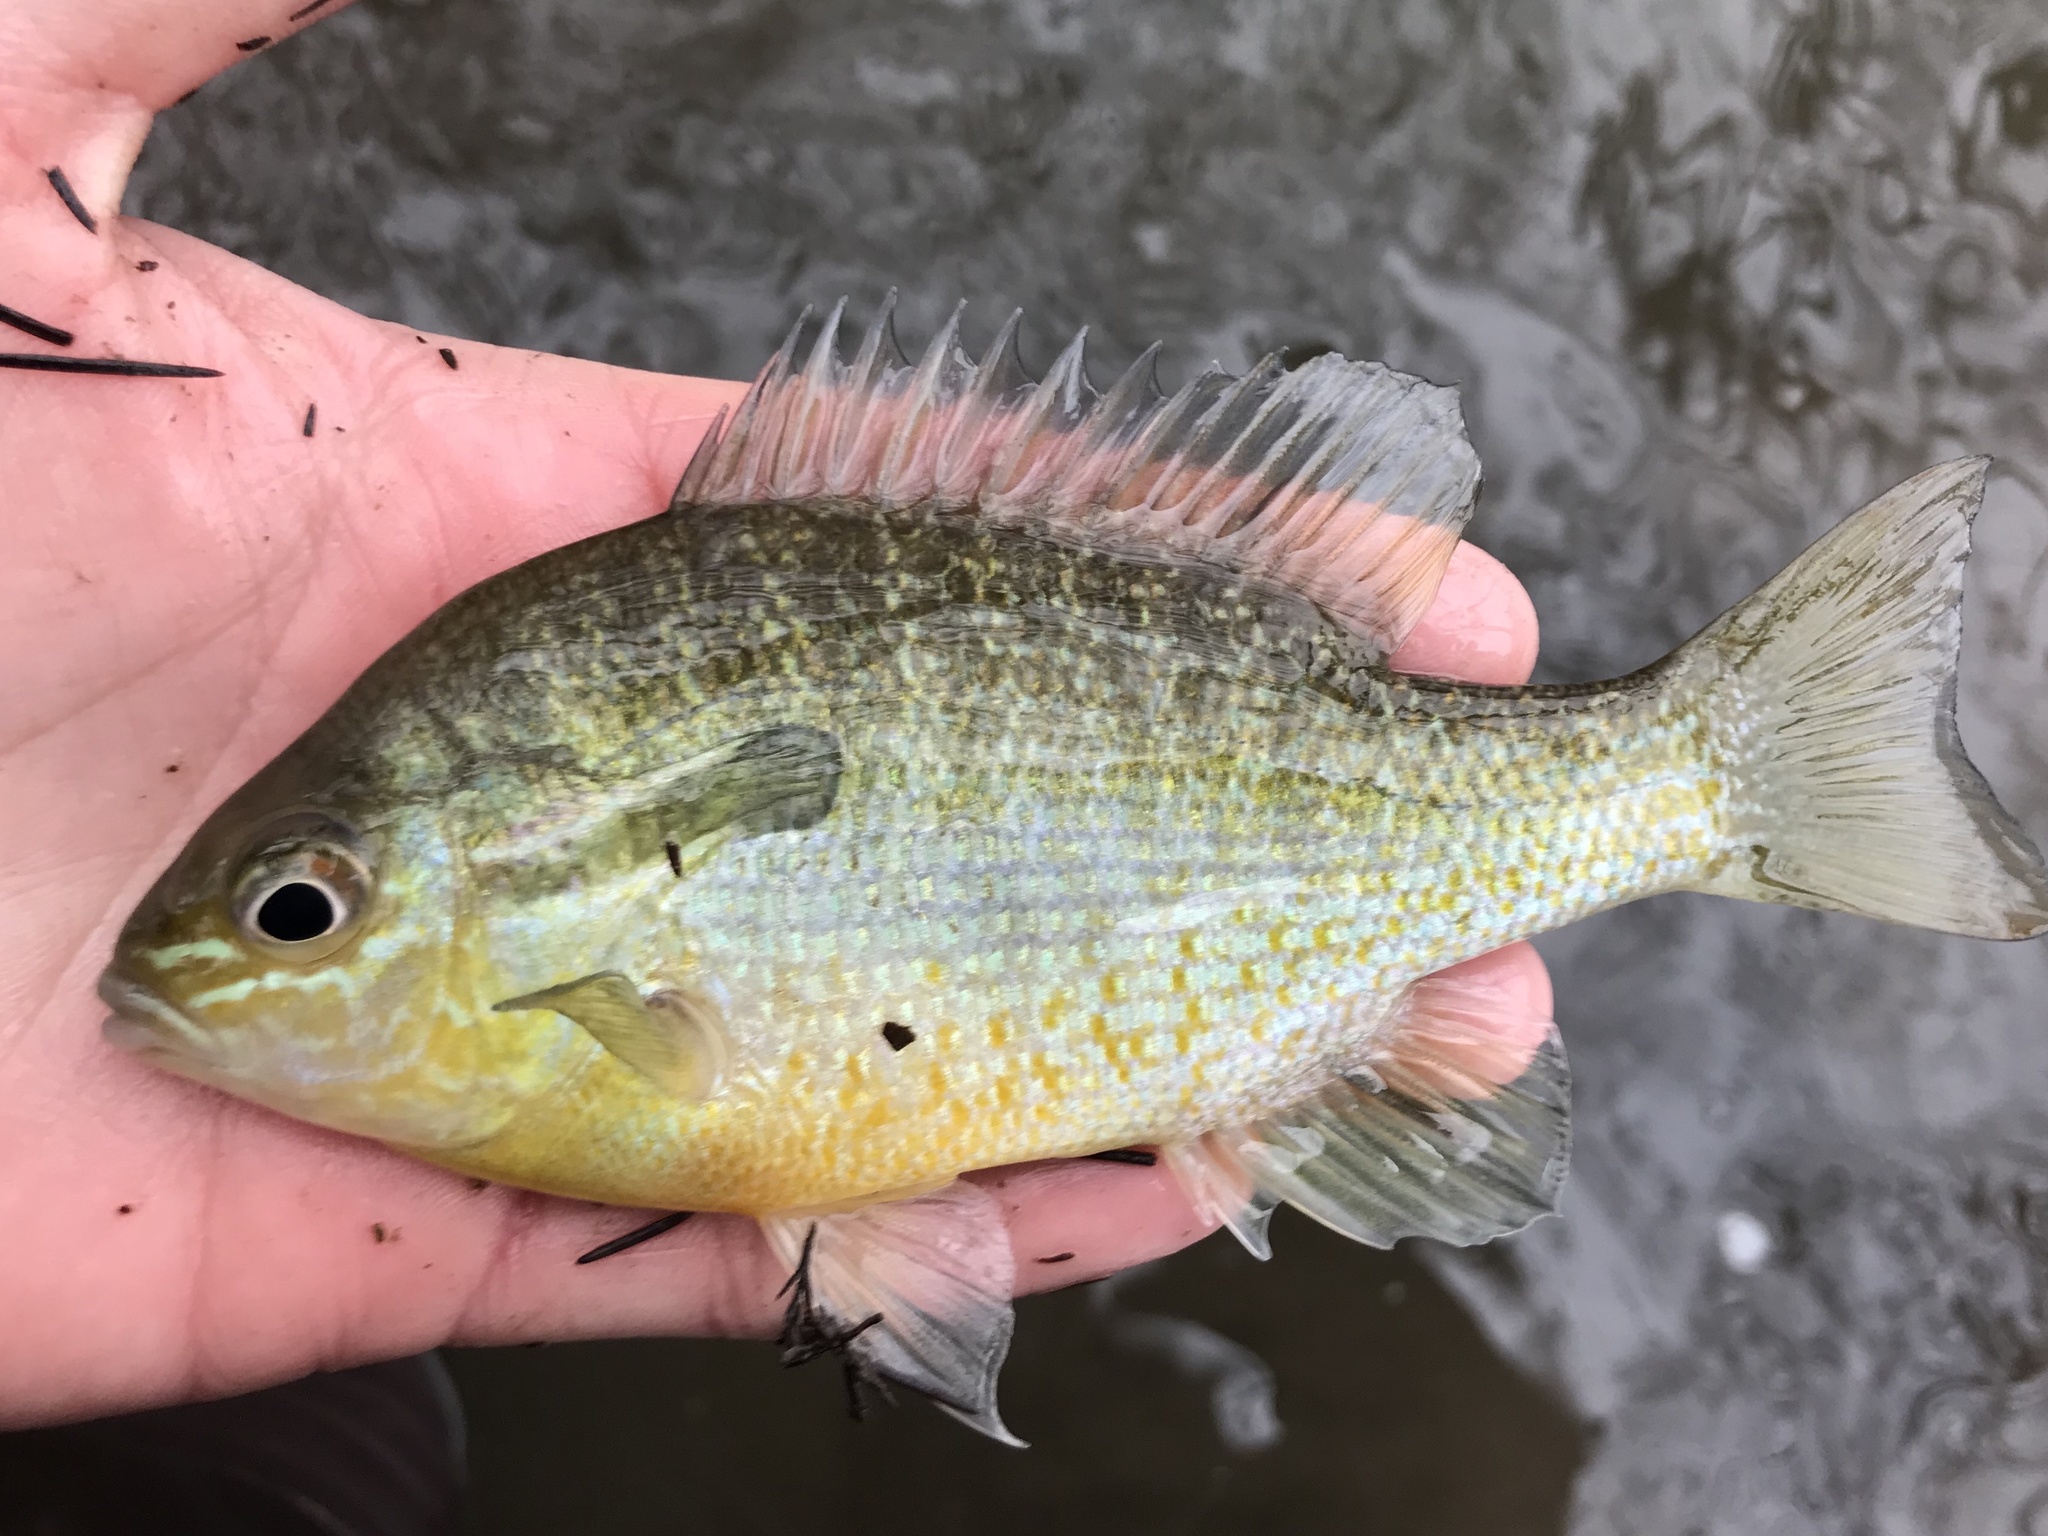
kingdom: Animalia
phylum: Chordata
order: Perciformes
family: Centrarchidae
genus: Lepomis
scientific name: Lepomis auritus
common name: Redbreast sunfish
